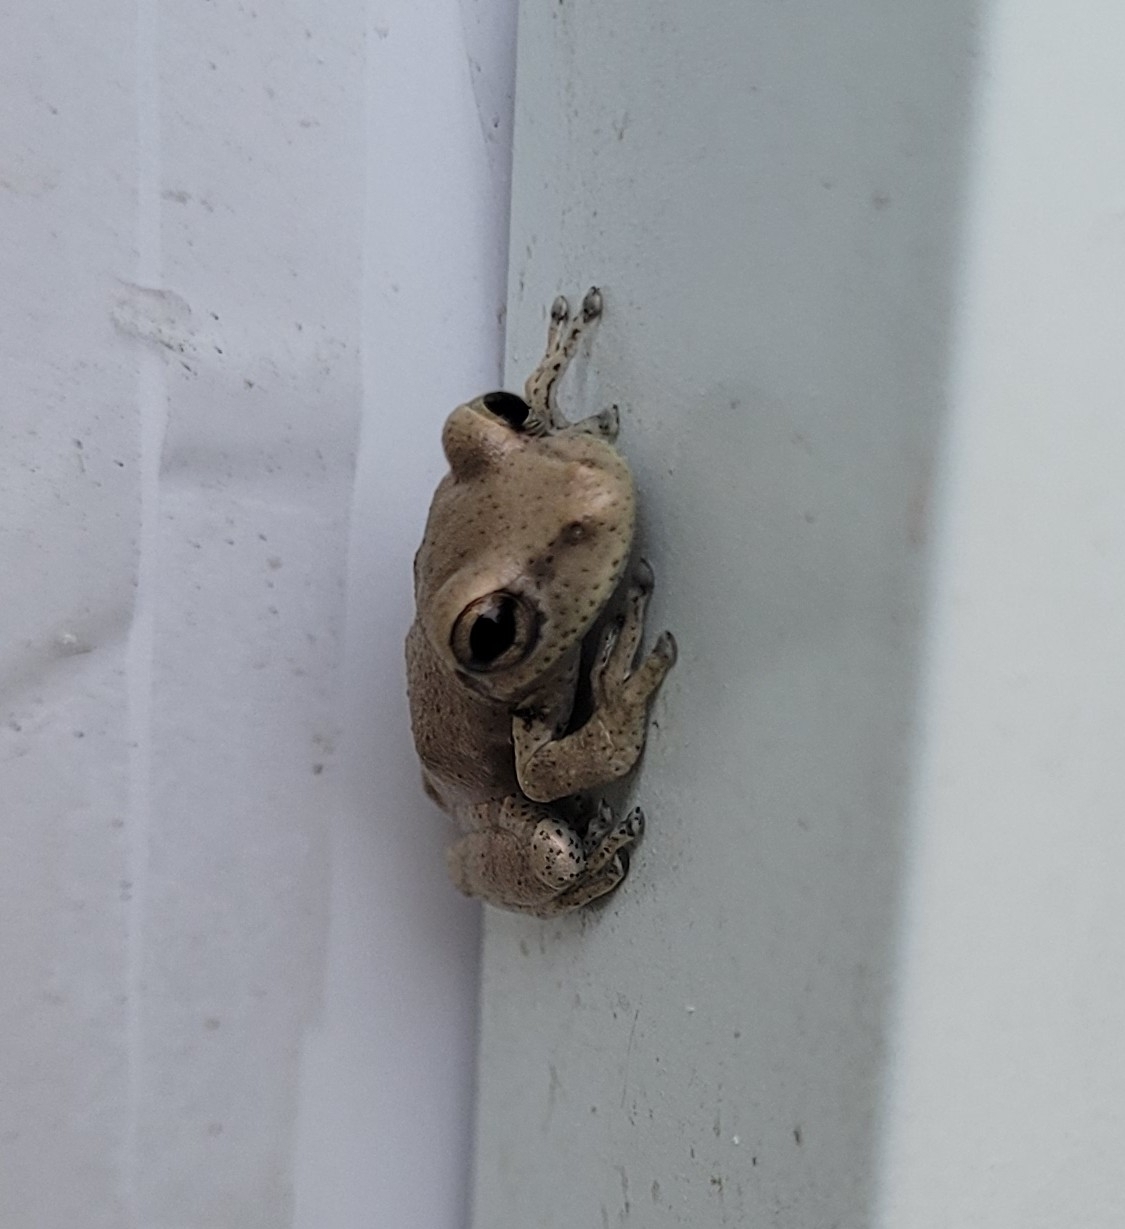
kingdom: Animalia
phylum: Chordata
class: Amphibia
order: Anura
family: Hylidae
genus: Osteopilus
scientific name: Osteopilus dominicensis
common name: Hispaniolan common treefrog
